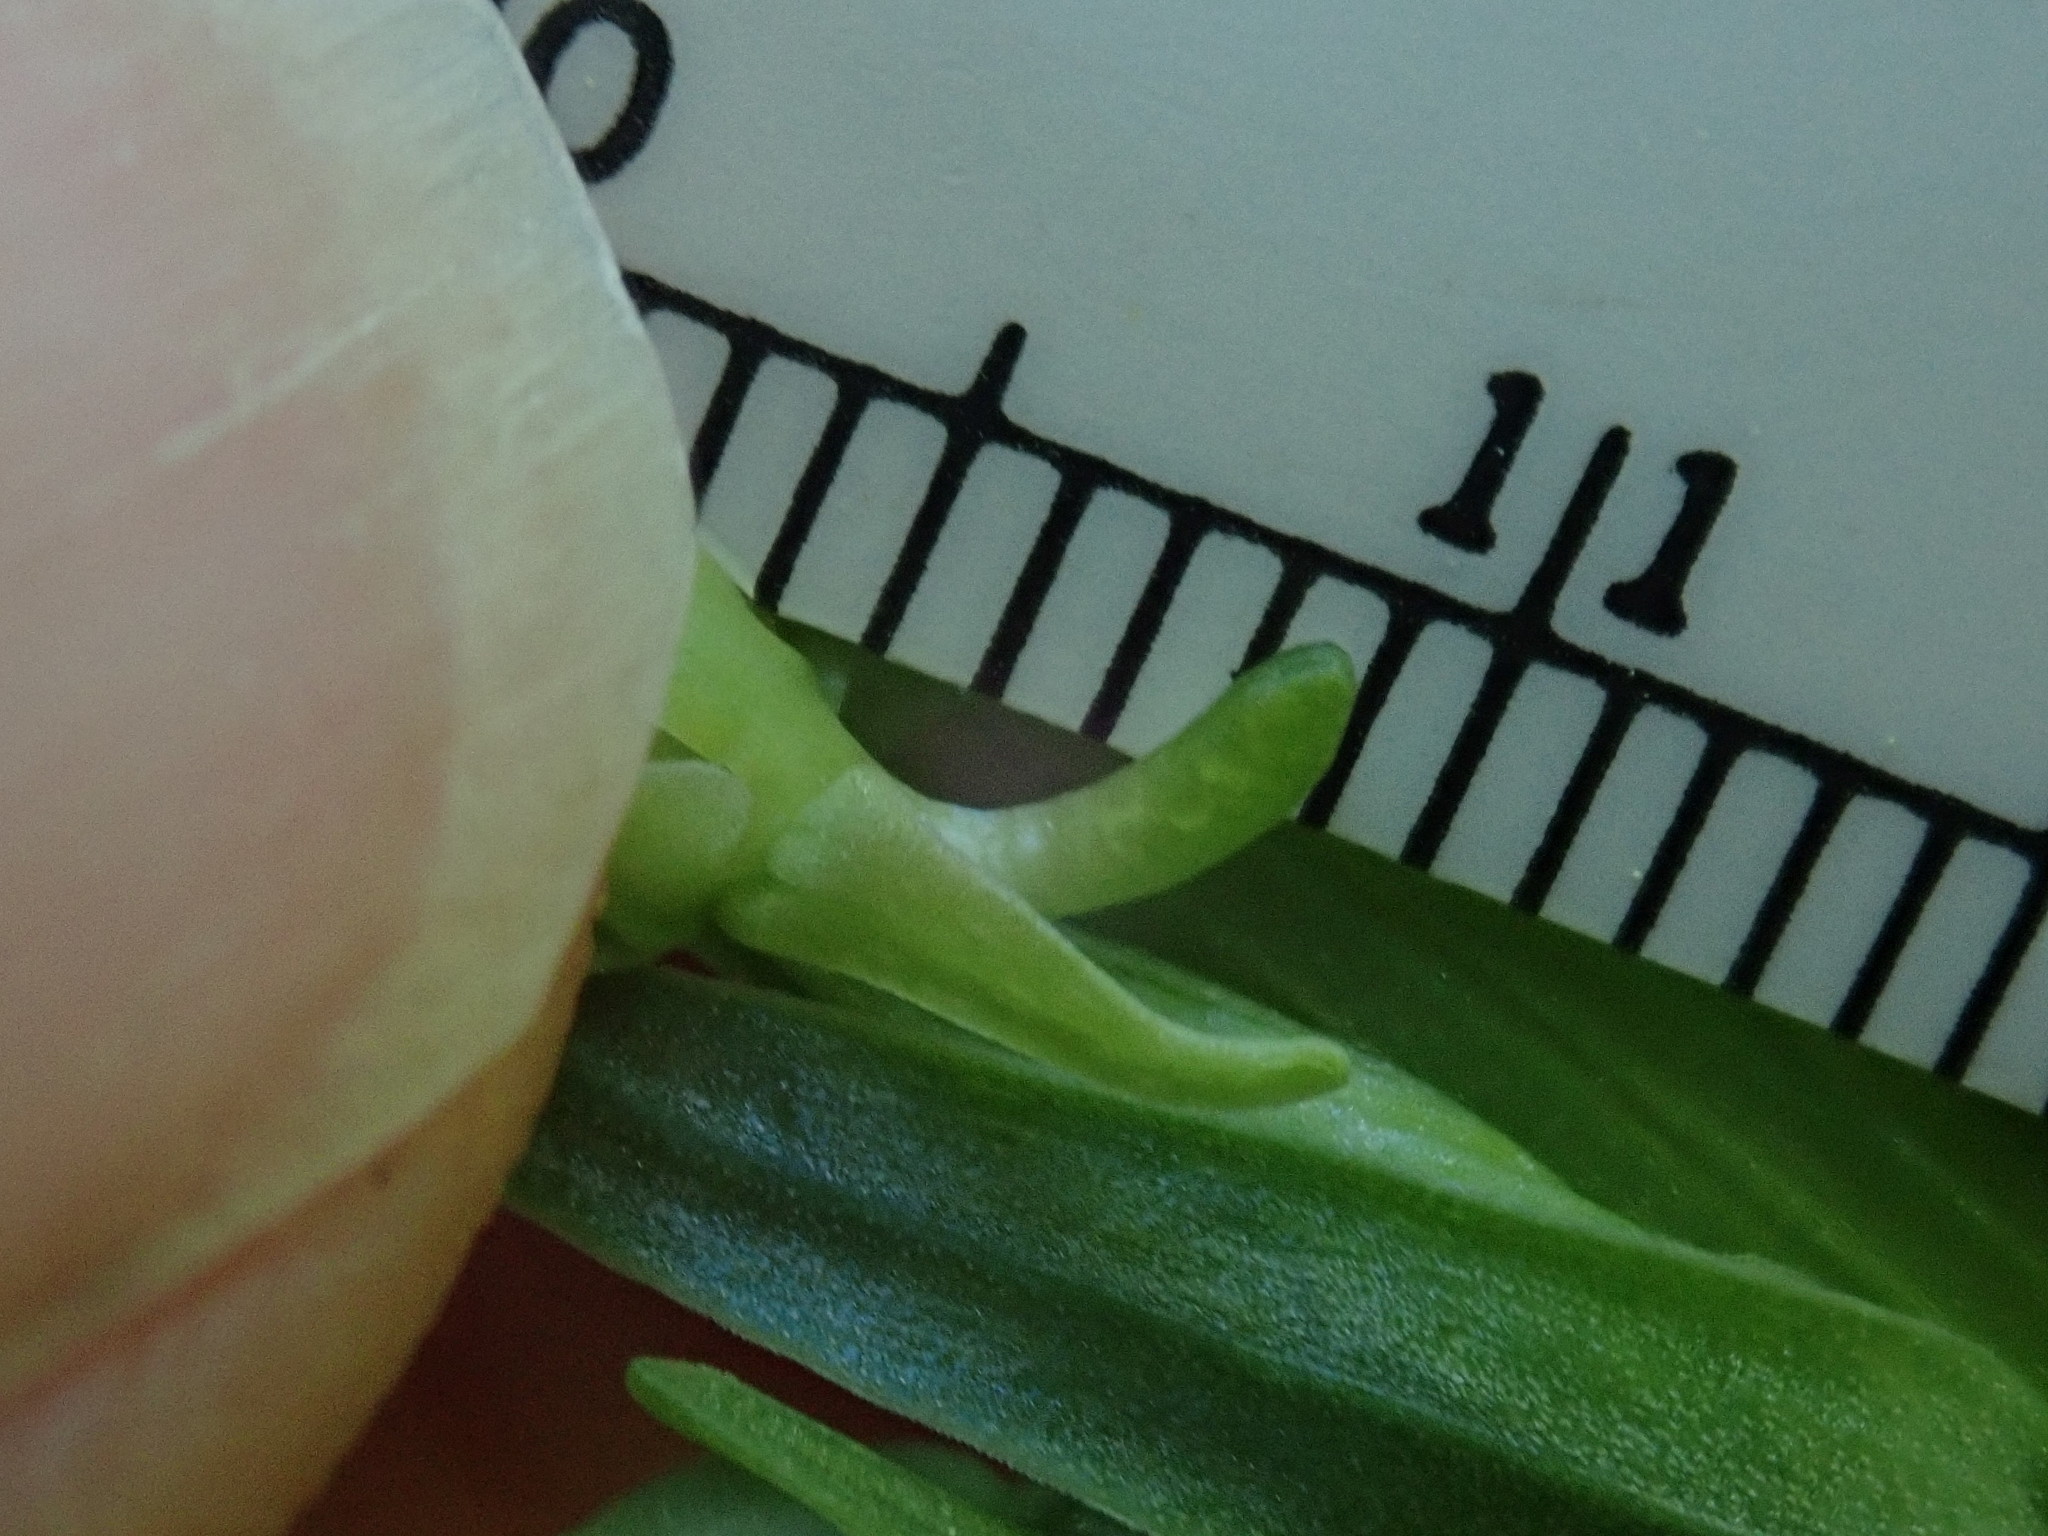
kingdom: Plantae
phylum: Tracheophyta
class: Liliopsida
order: Asparagales
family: Orchidaceae
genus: Platanthera
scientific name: Platanthera huronensis
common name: Fragrant green orchid
